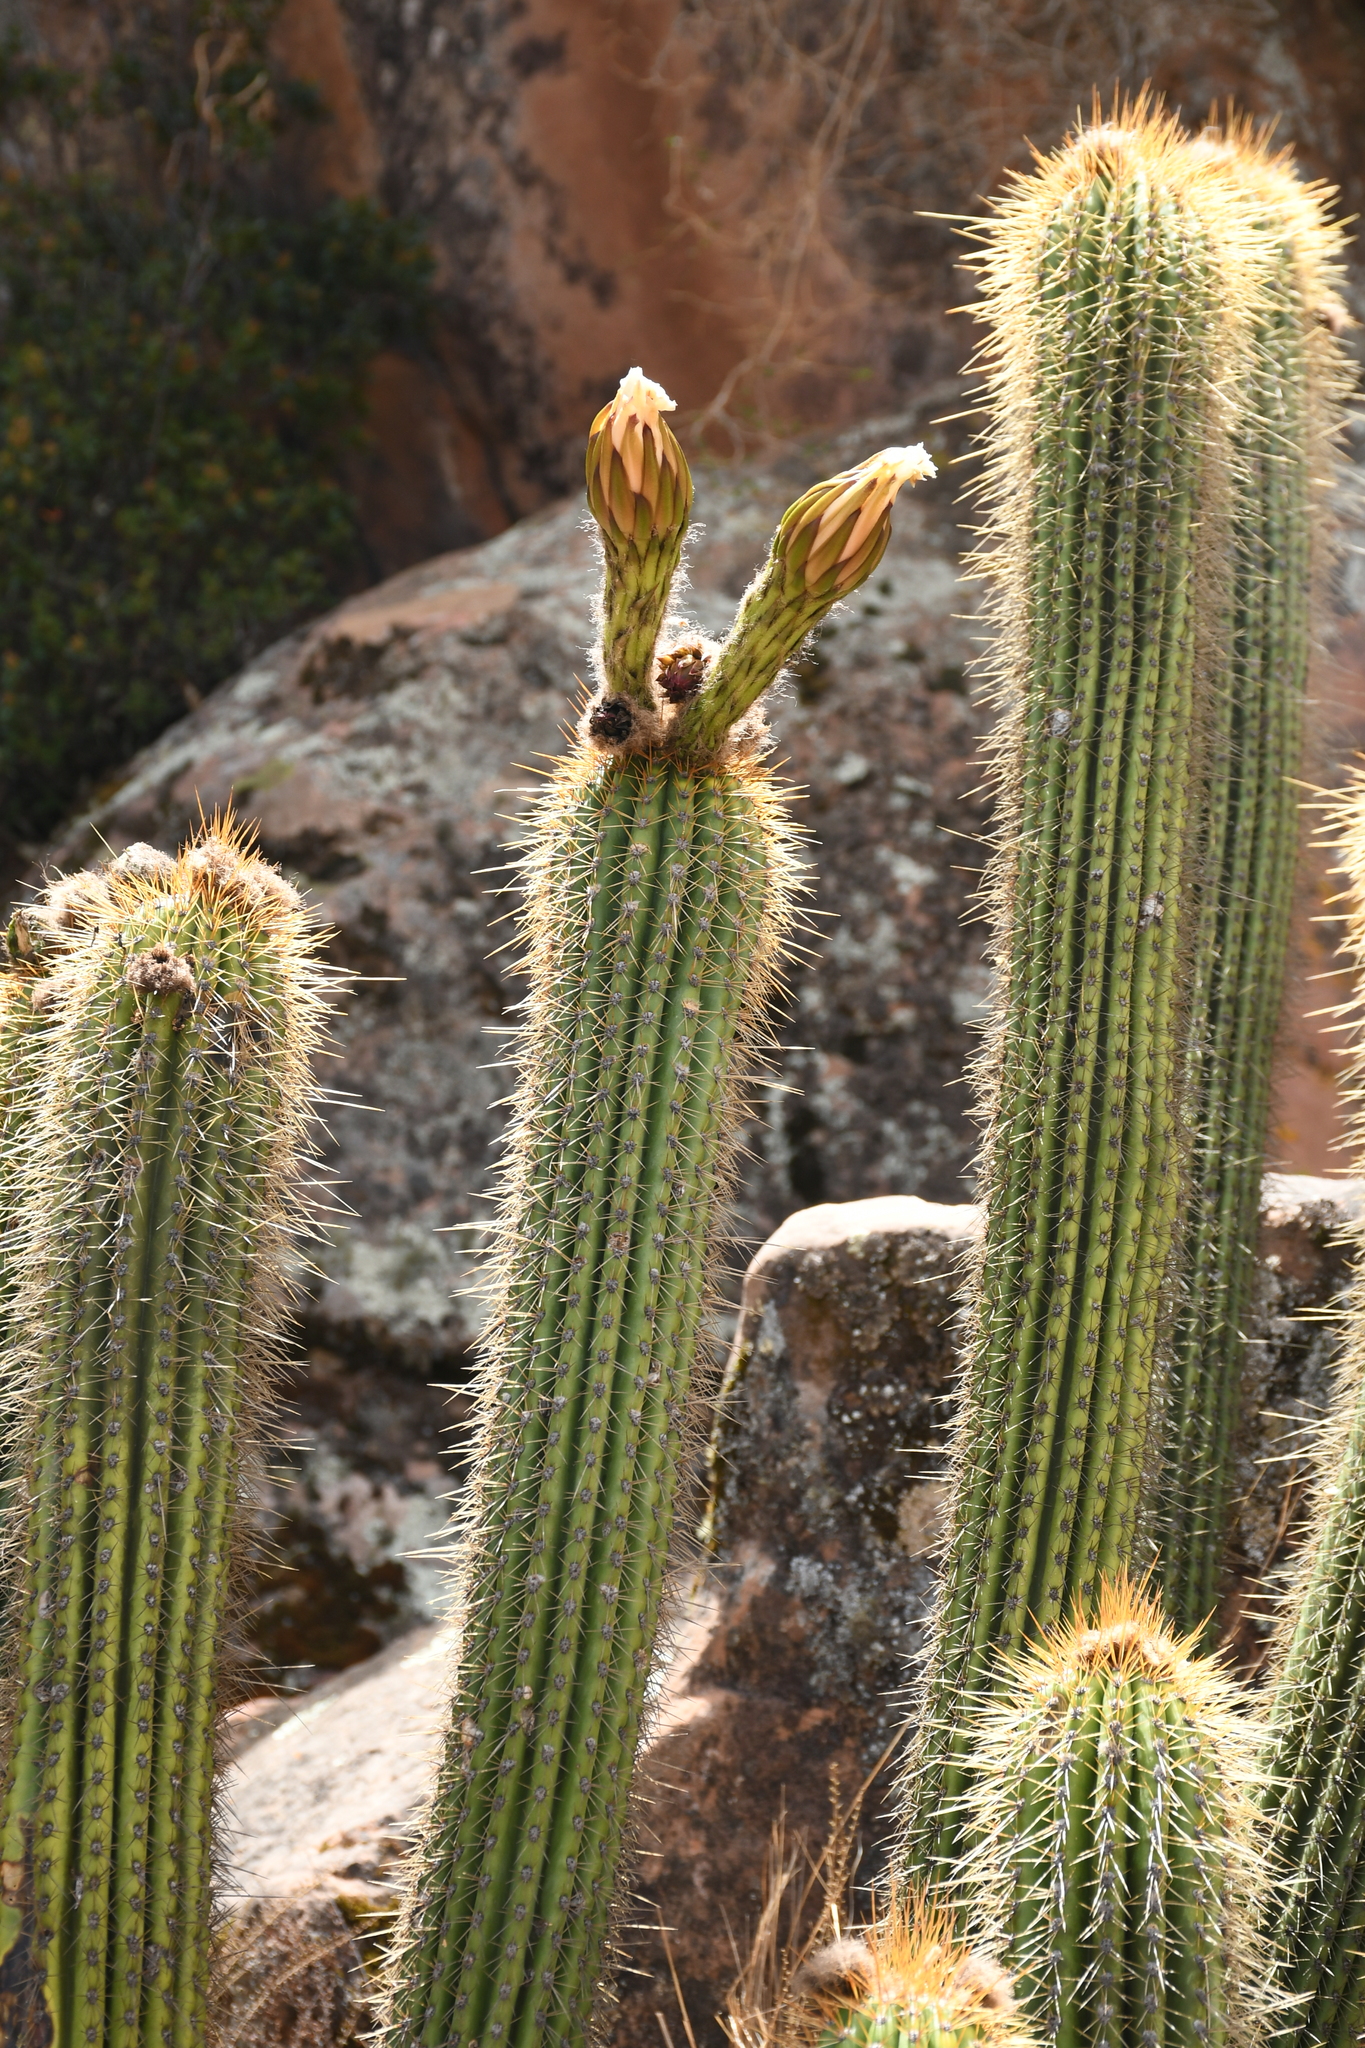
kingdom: Plantae
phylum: Tracheophyta
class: Magnoliopsida
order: Caryophyllales
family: Cactaceae
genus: Soehrensia
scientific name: Soehrensia volliana
